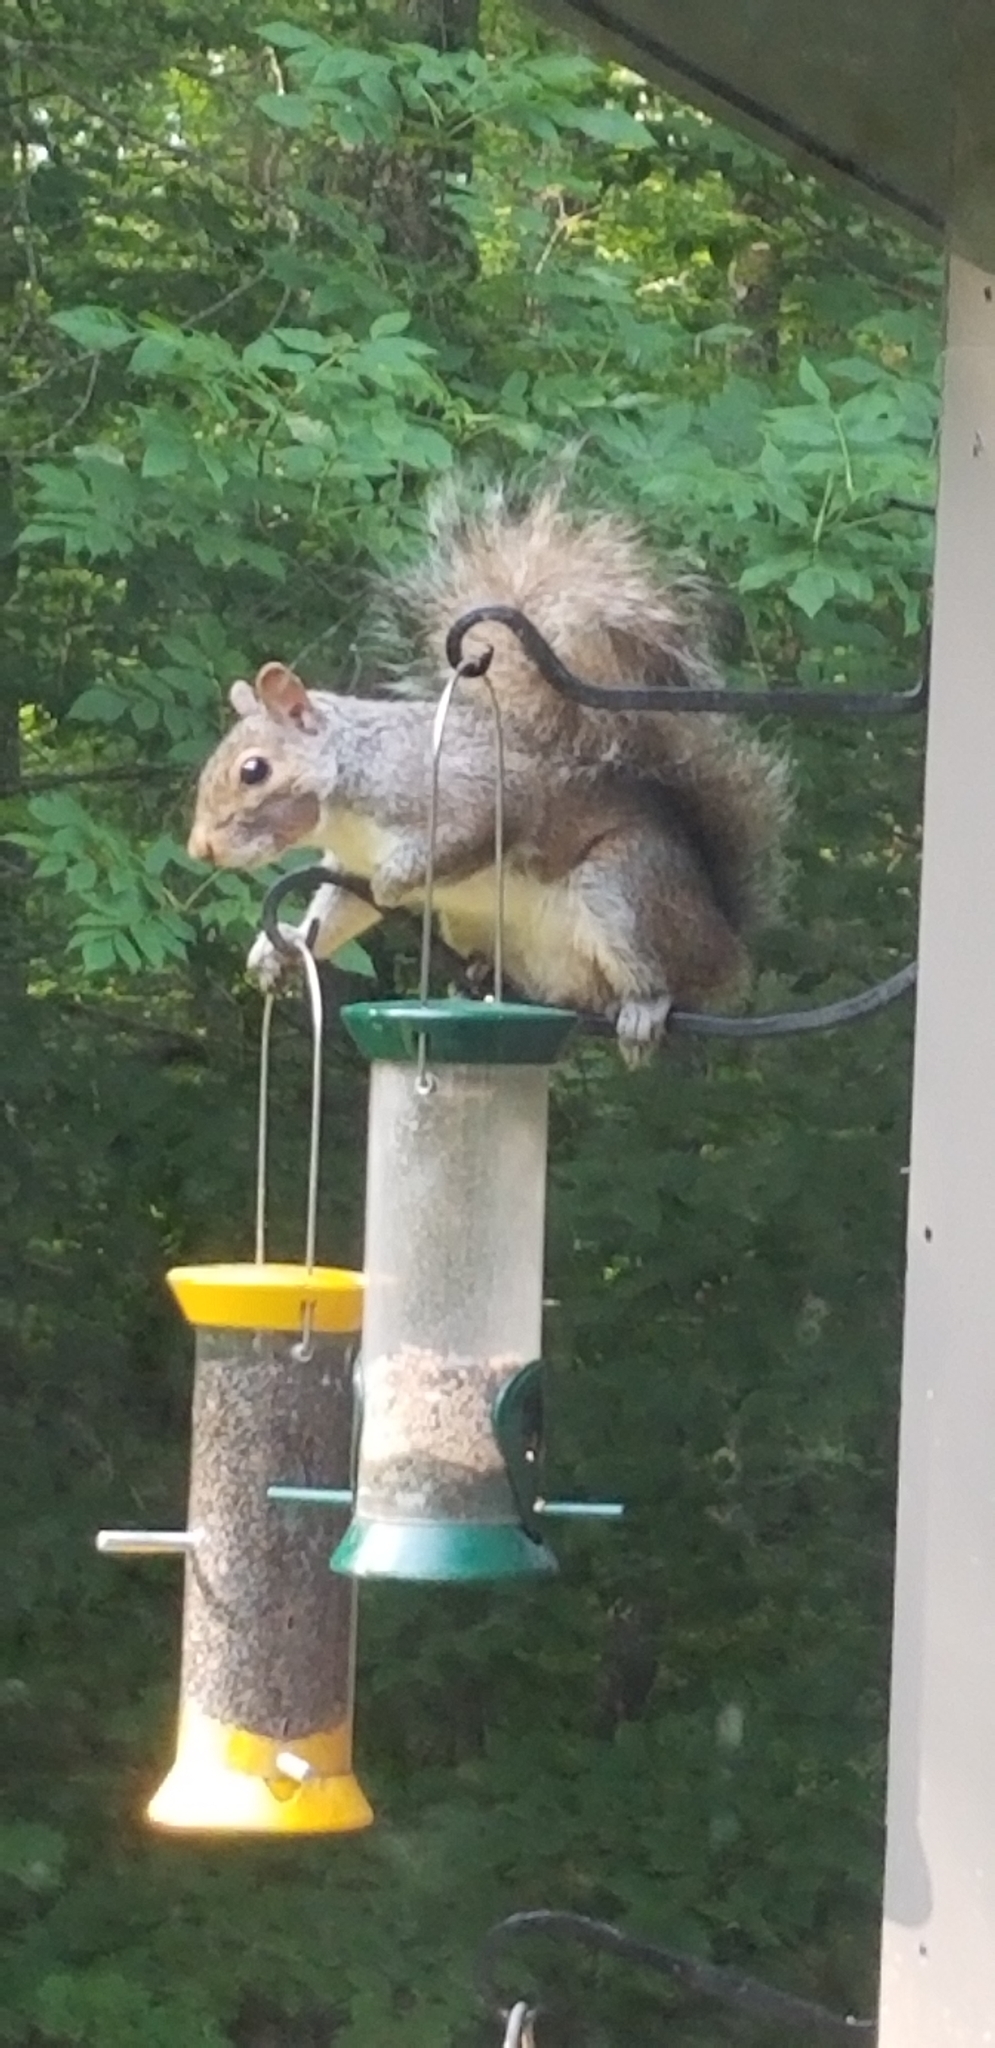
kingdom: Animalia
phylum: Chordata
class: Mammalia
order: Rodentia
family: Sciuridae
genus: Sciurus
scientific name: Sciurus carolinensis
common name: Eastern gray squirrel
